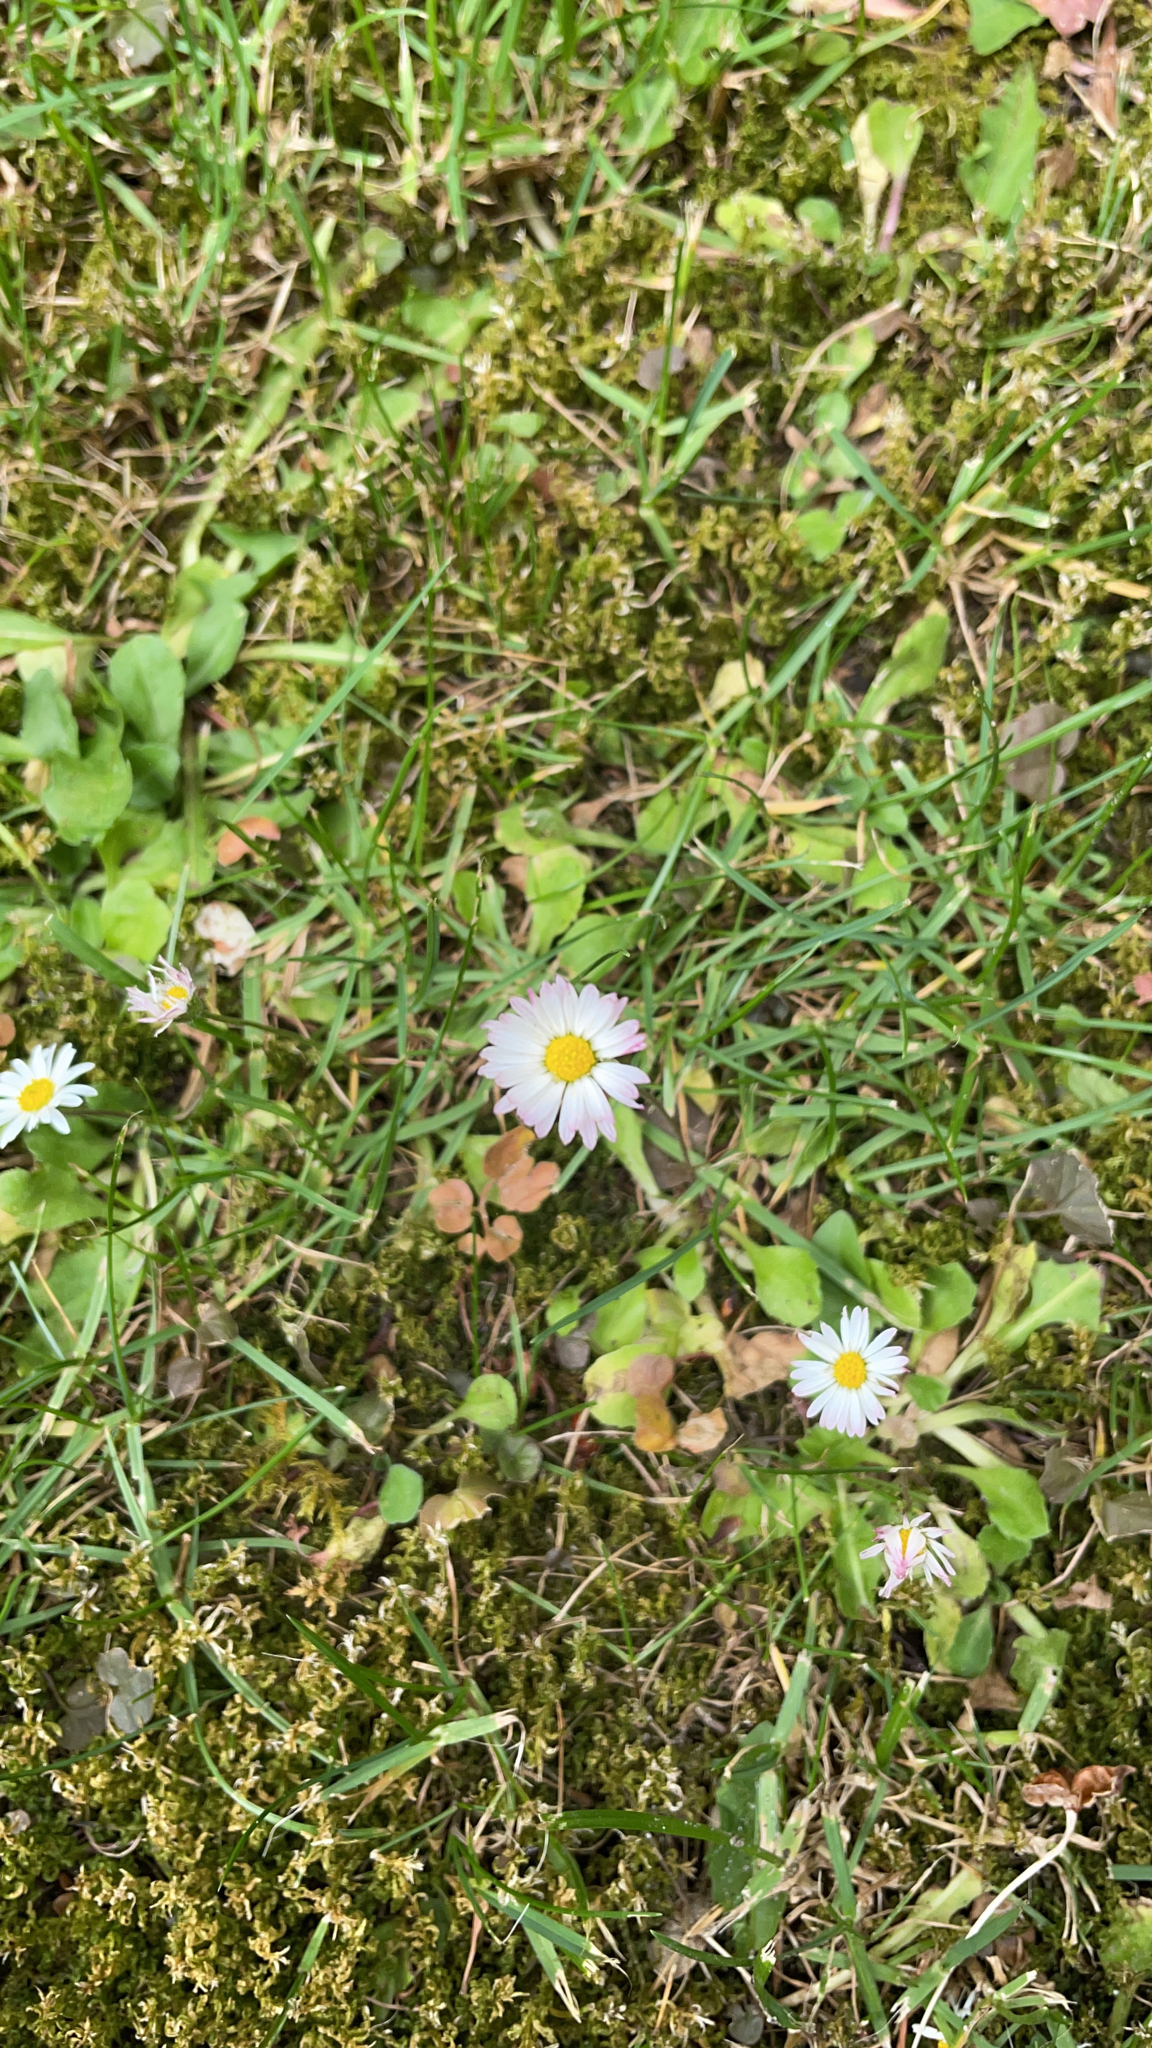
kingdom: Plantae
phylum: Tracheophyta
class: Magnoliopsida
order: Asterales
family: Asteraceae
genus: Bellis
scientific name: Bellis perennis
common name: Lawndaisy
